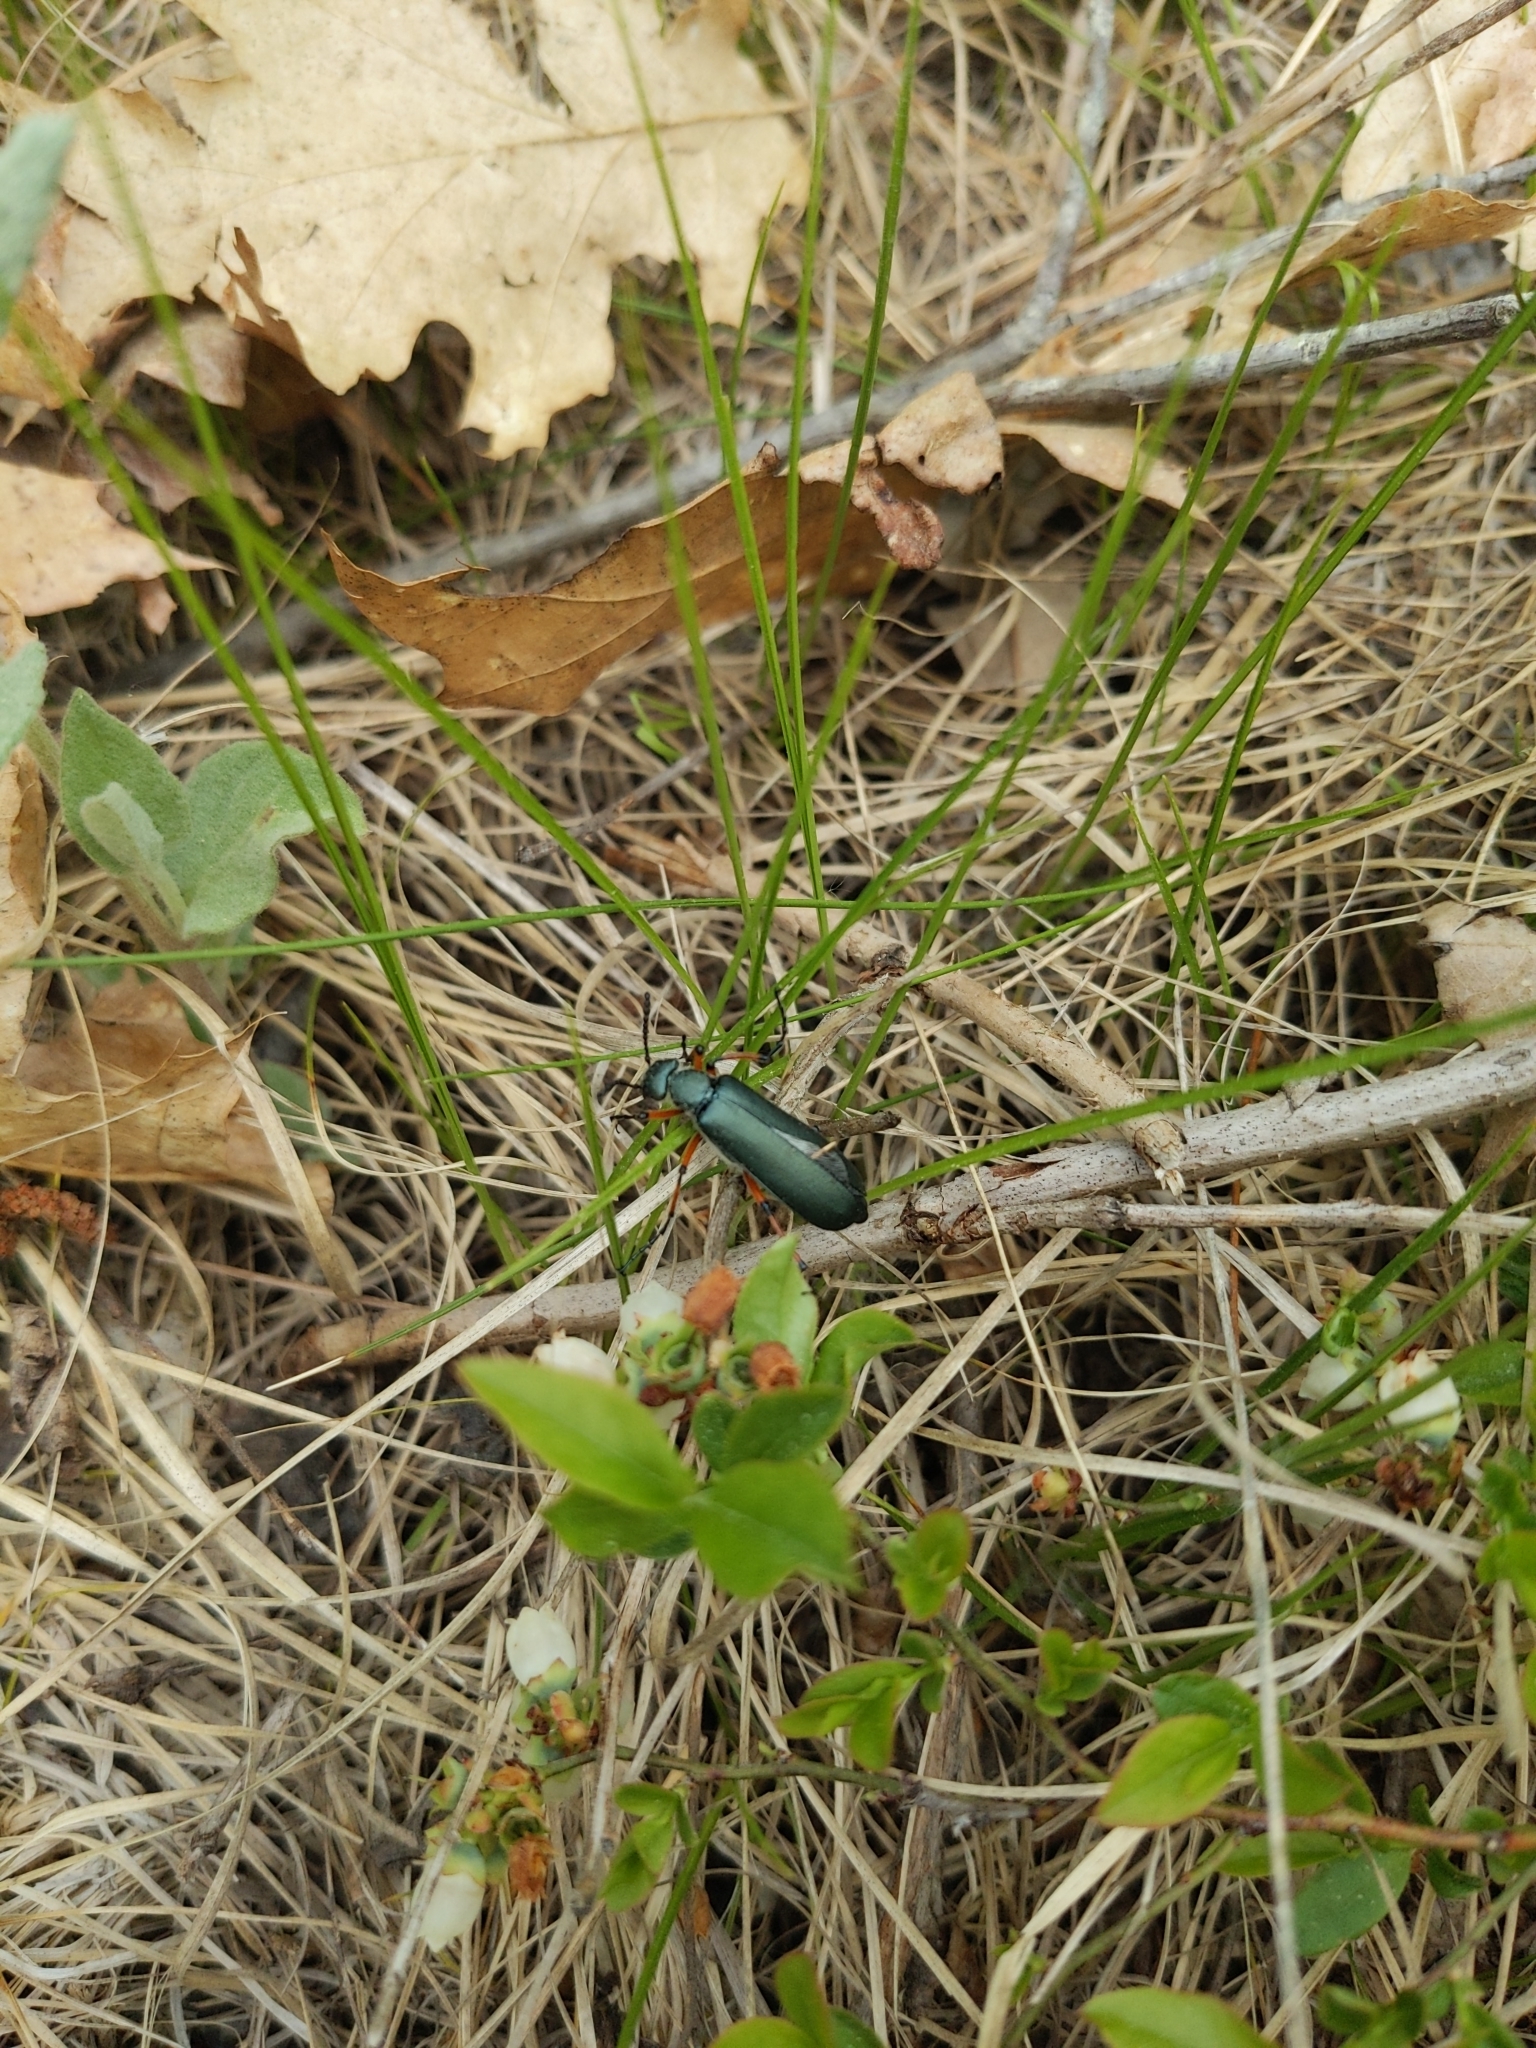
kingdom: Animalia
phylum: Arthropoda
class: Insecta
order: Coleoptera
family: Meloidae
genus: Lytta
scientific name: Lytta sayi
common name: Say's blister beetle
